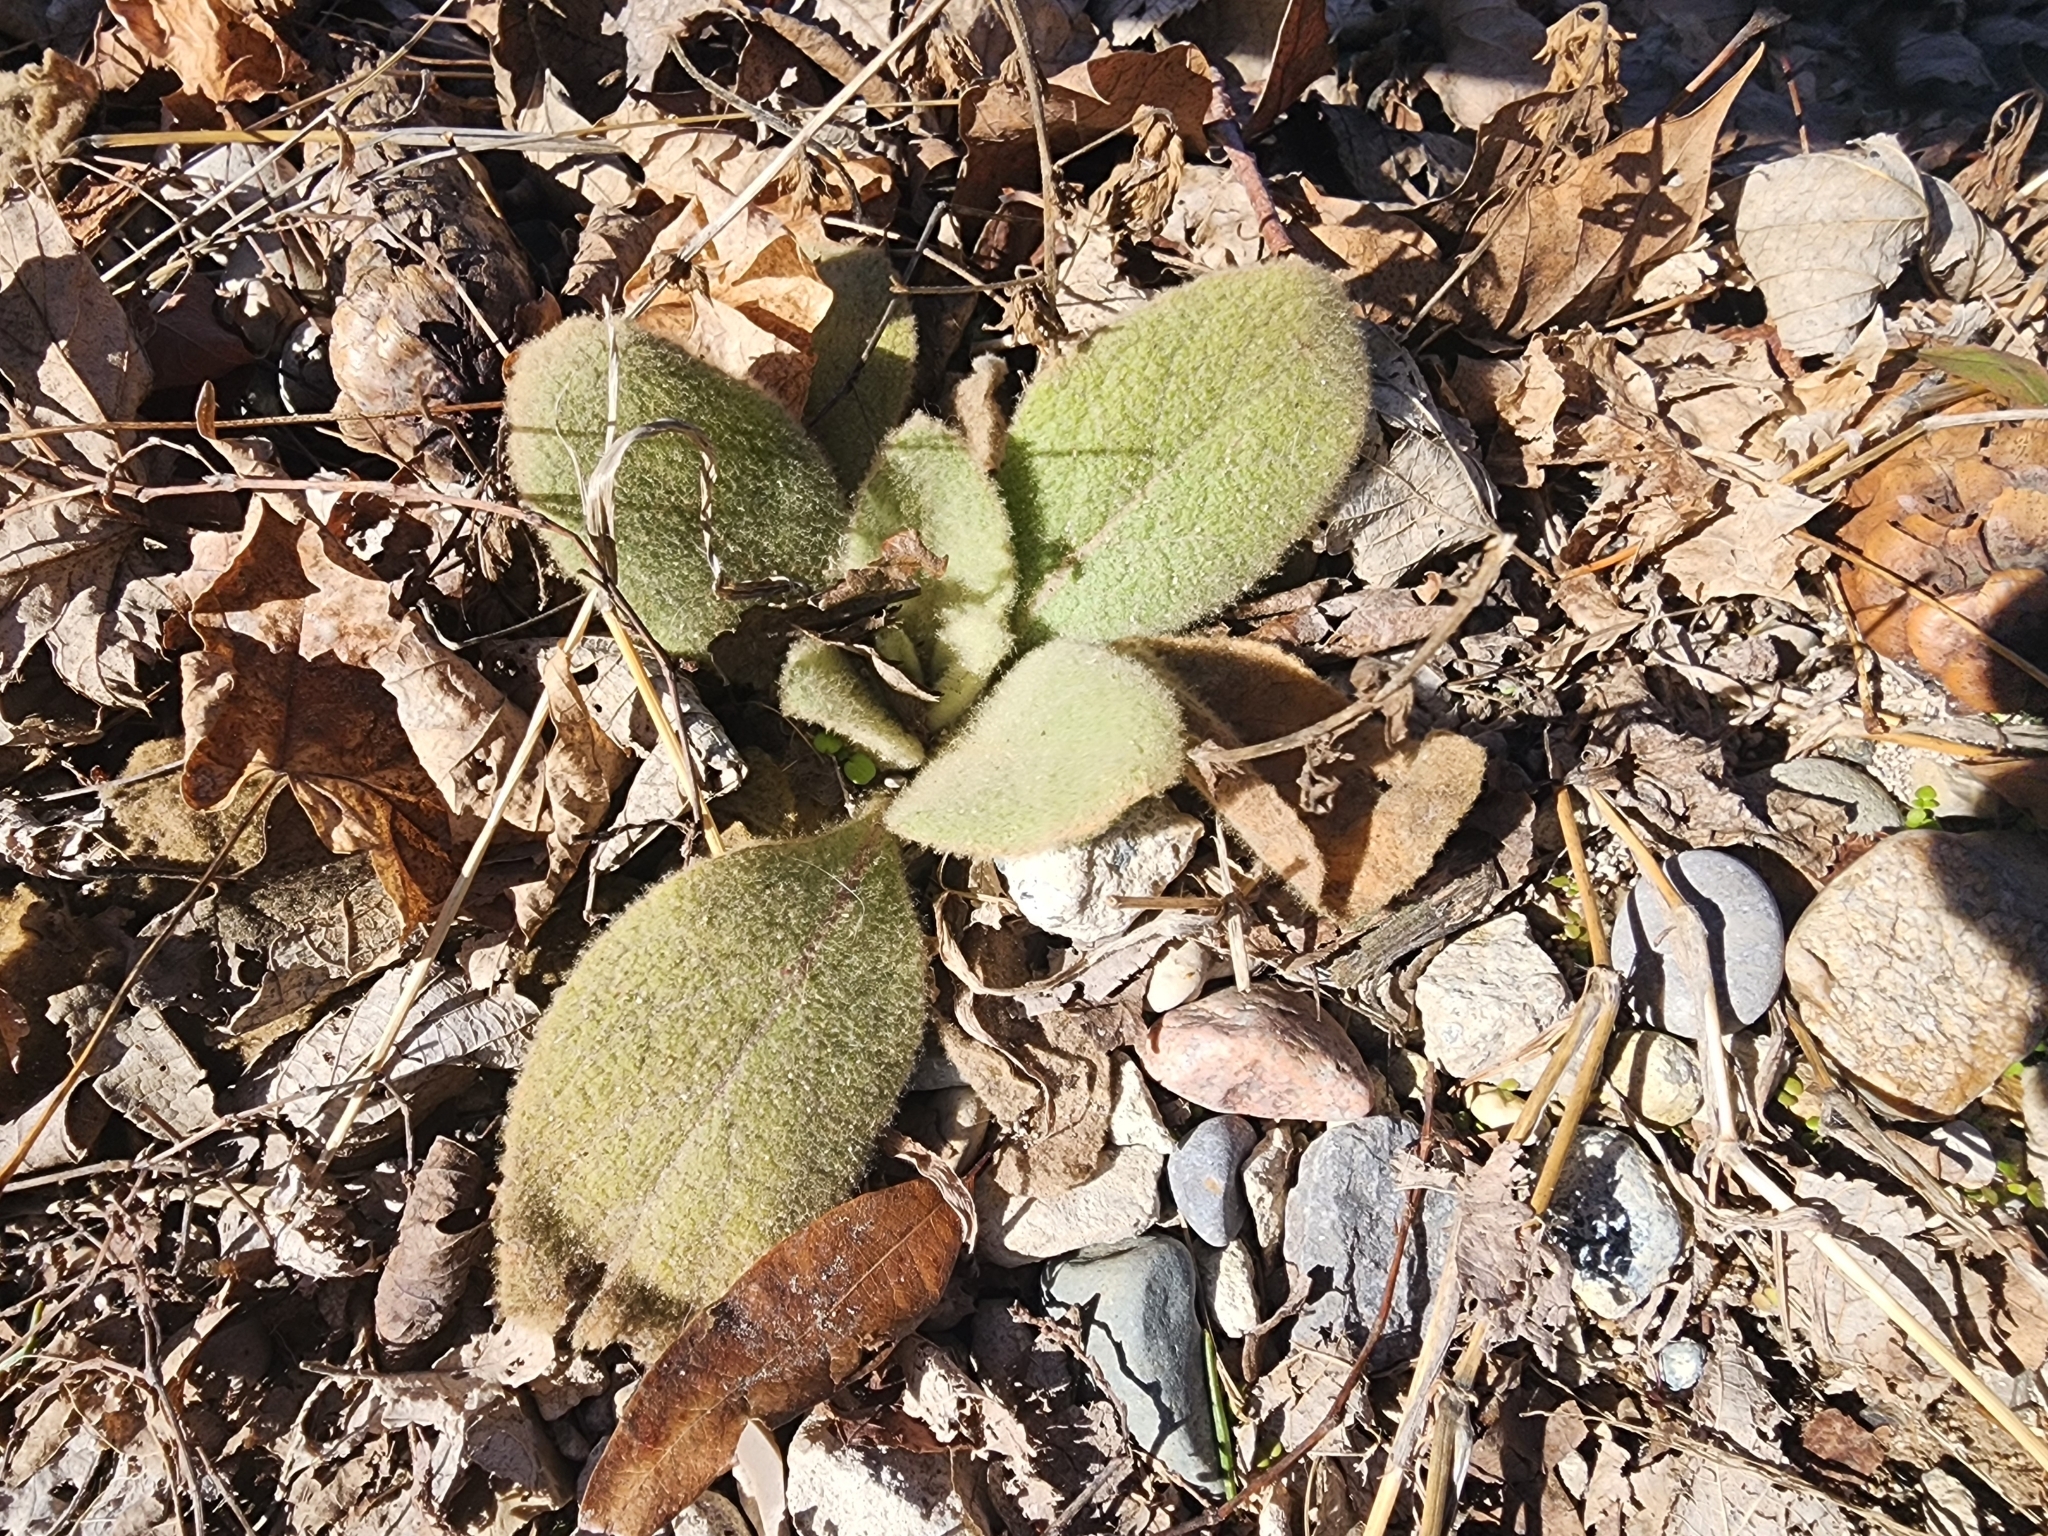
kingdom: Plantae
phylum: Tracheophyta
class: Magnoliopsida
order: Lamiales
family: Scrophulariaceae
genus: Verbascum
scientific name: Verbascum thapsus
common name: Common mullein
